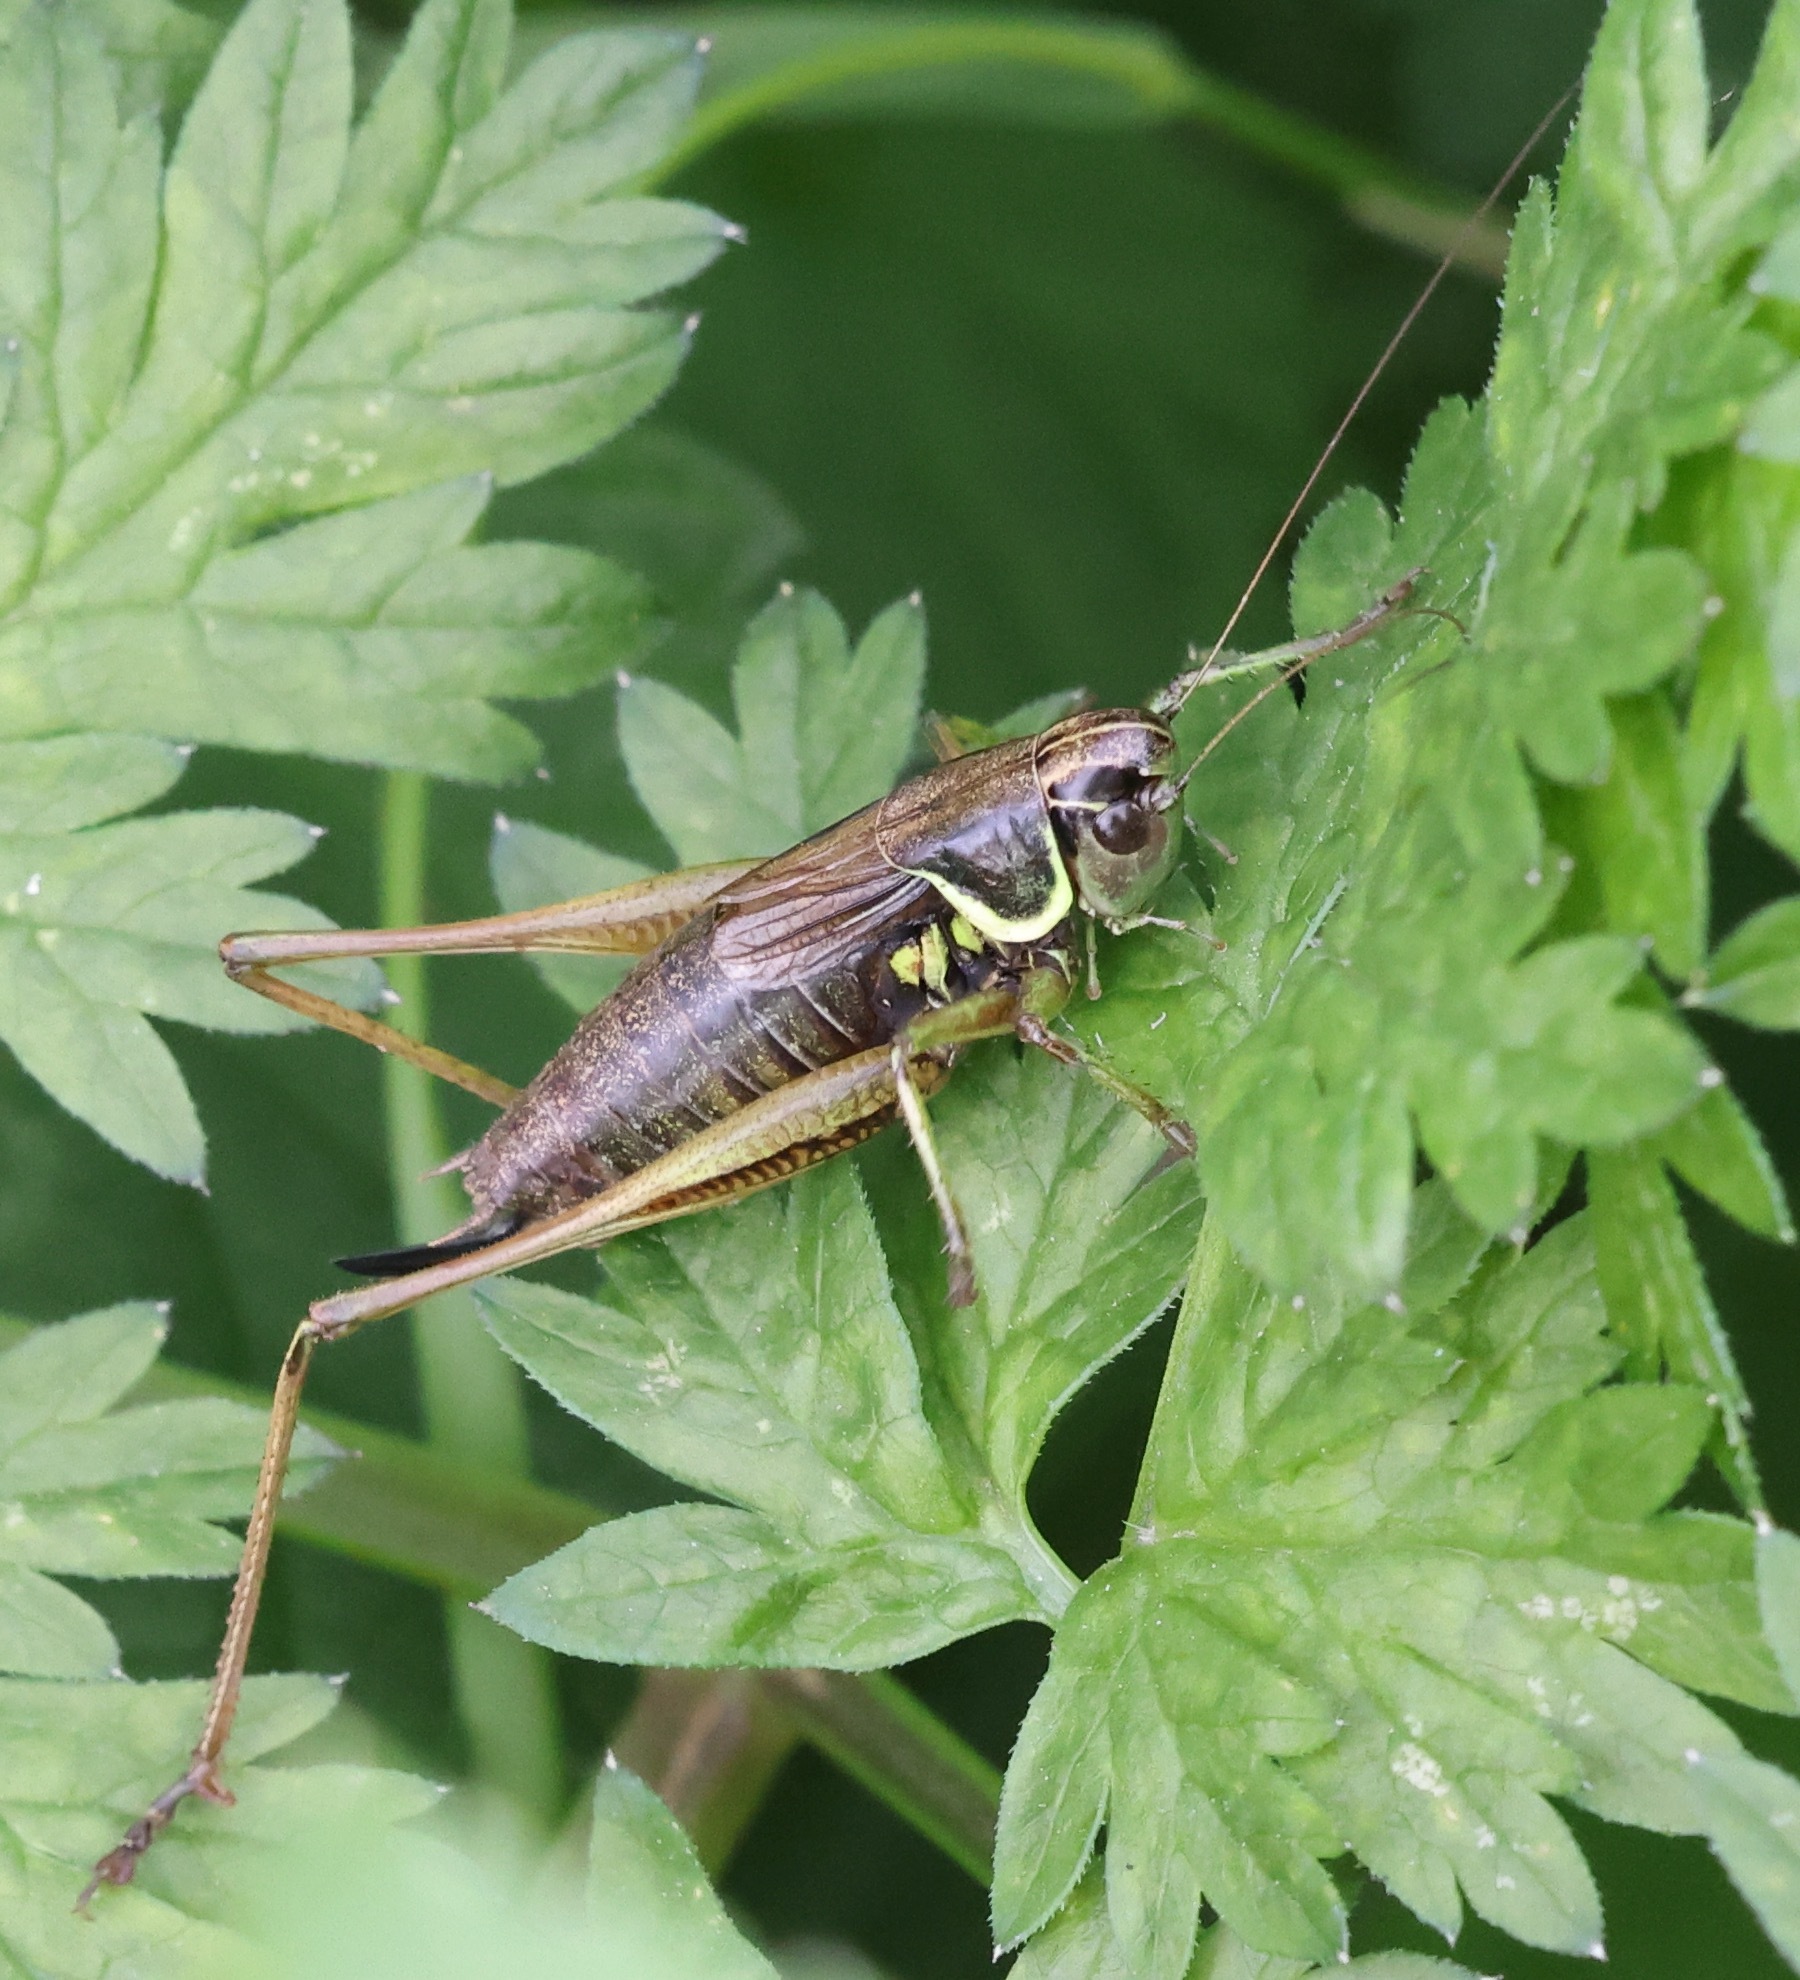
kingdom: Animalia
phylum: Arthropoda
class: Insecta
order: Orthoptera
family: Tettigoniidae
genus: Roeseliana
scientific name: Roeseliana roeselii
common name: Roesel's bush cricket
